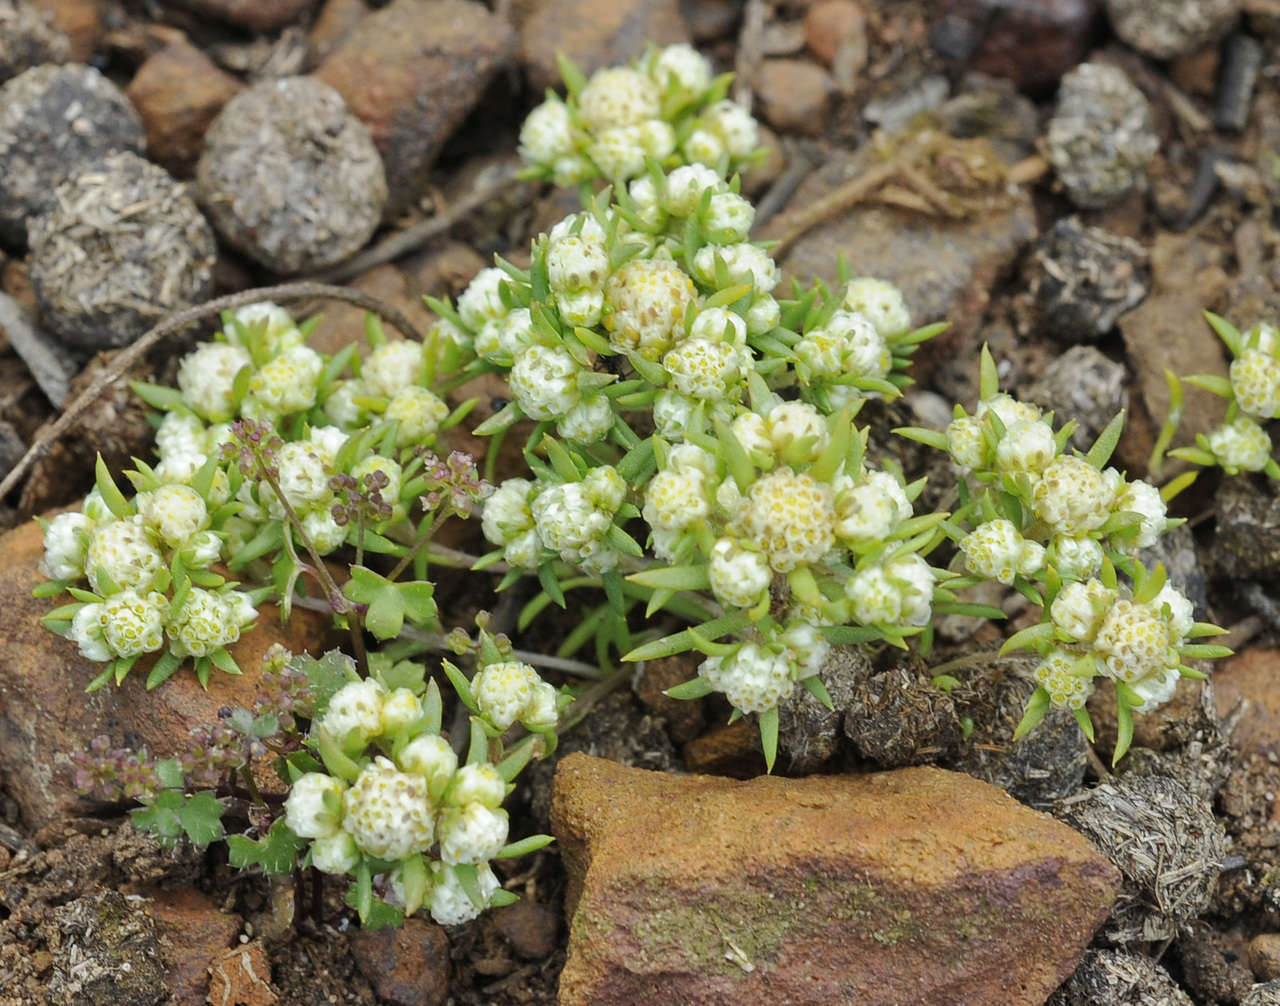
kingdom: Plantae
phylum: Tracheophyta
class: Magnoliopsida
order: Asterales
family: Asteraceae
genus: Siloxerus
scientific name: Siloxerus multiflorus
